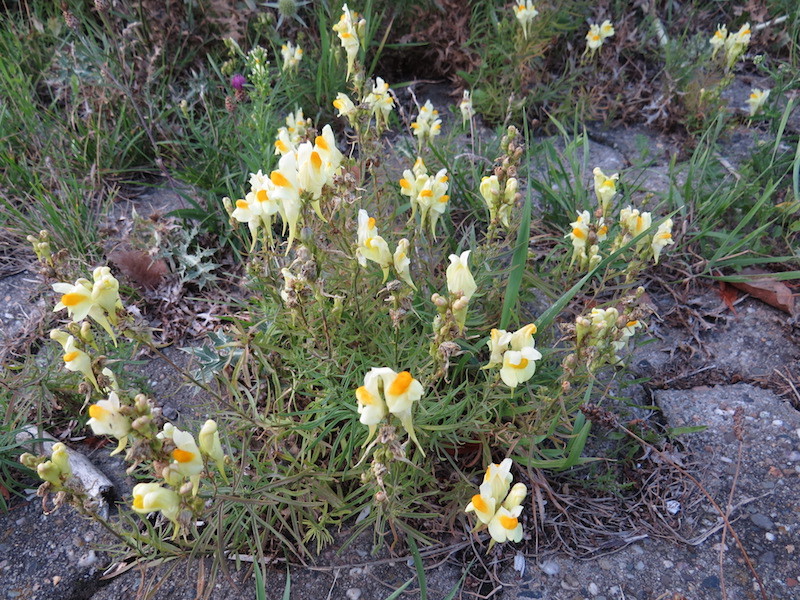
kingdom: Plantae
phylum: Tracheophyta
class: Magnoliopsida
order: Lamiales
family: Plantaginaceae
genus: Linaria
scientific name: Linaria vulgaris
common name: Butter and eggs
